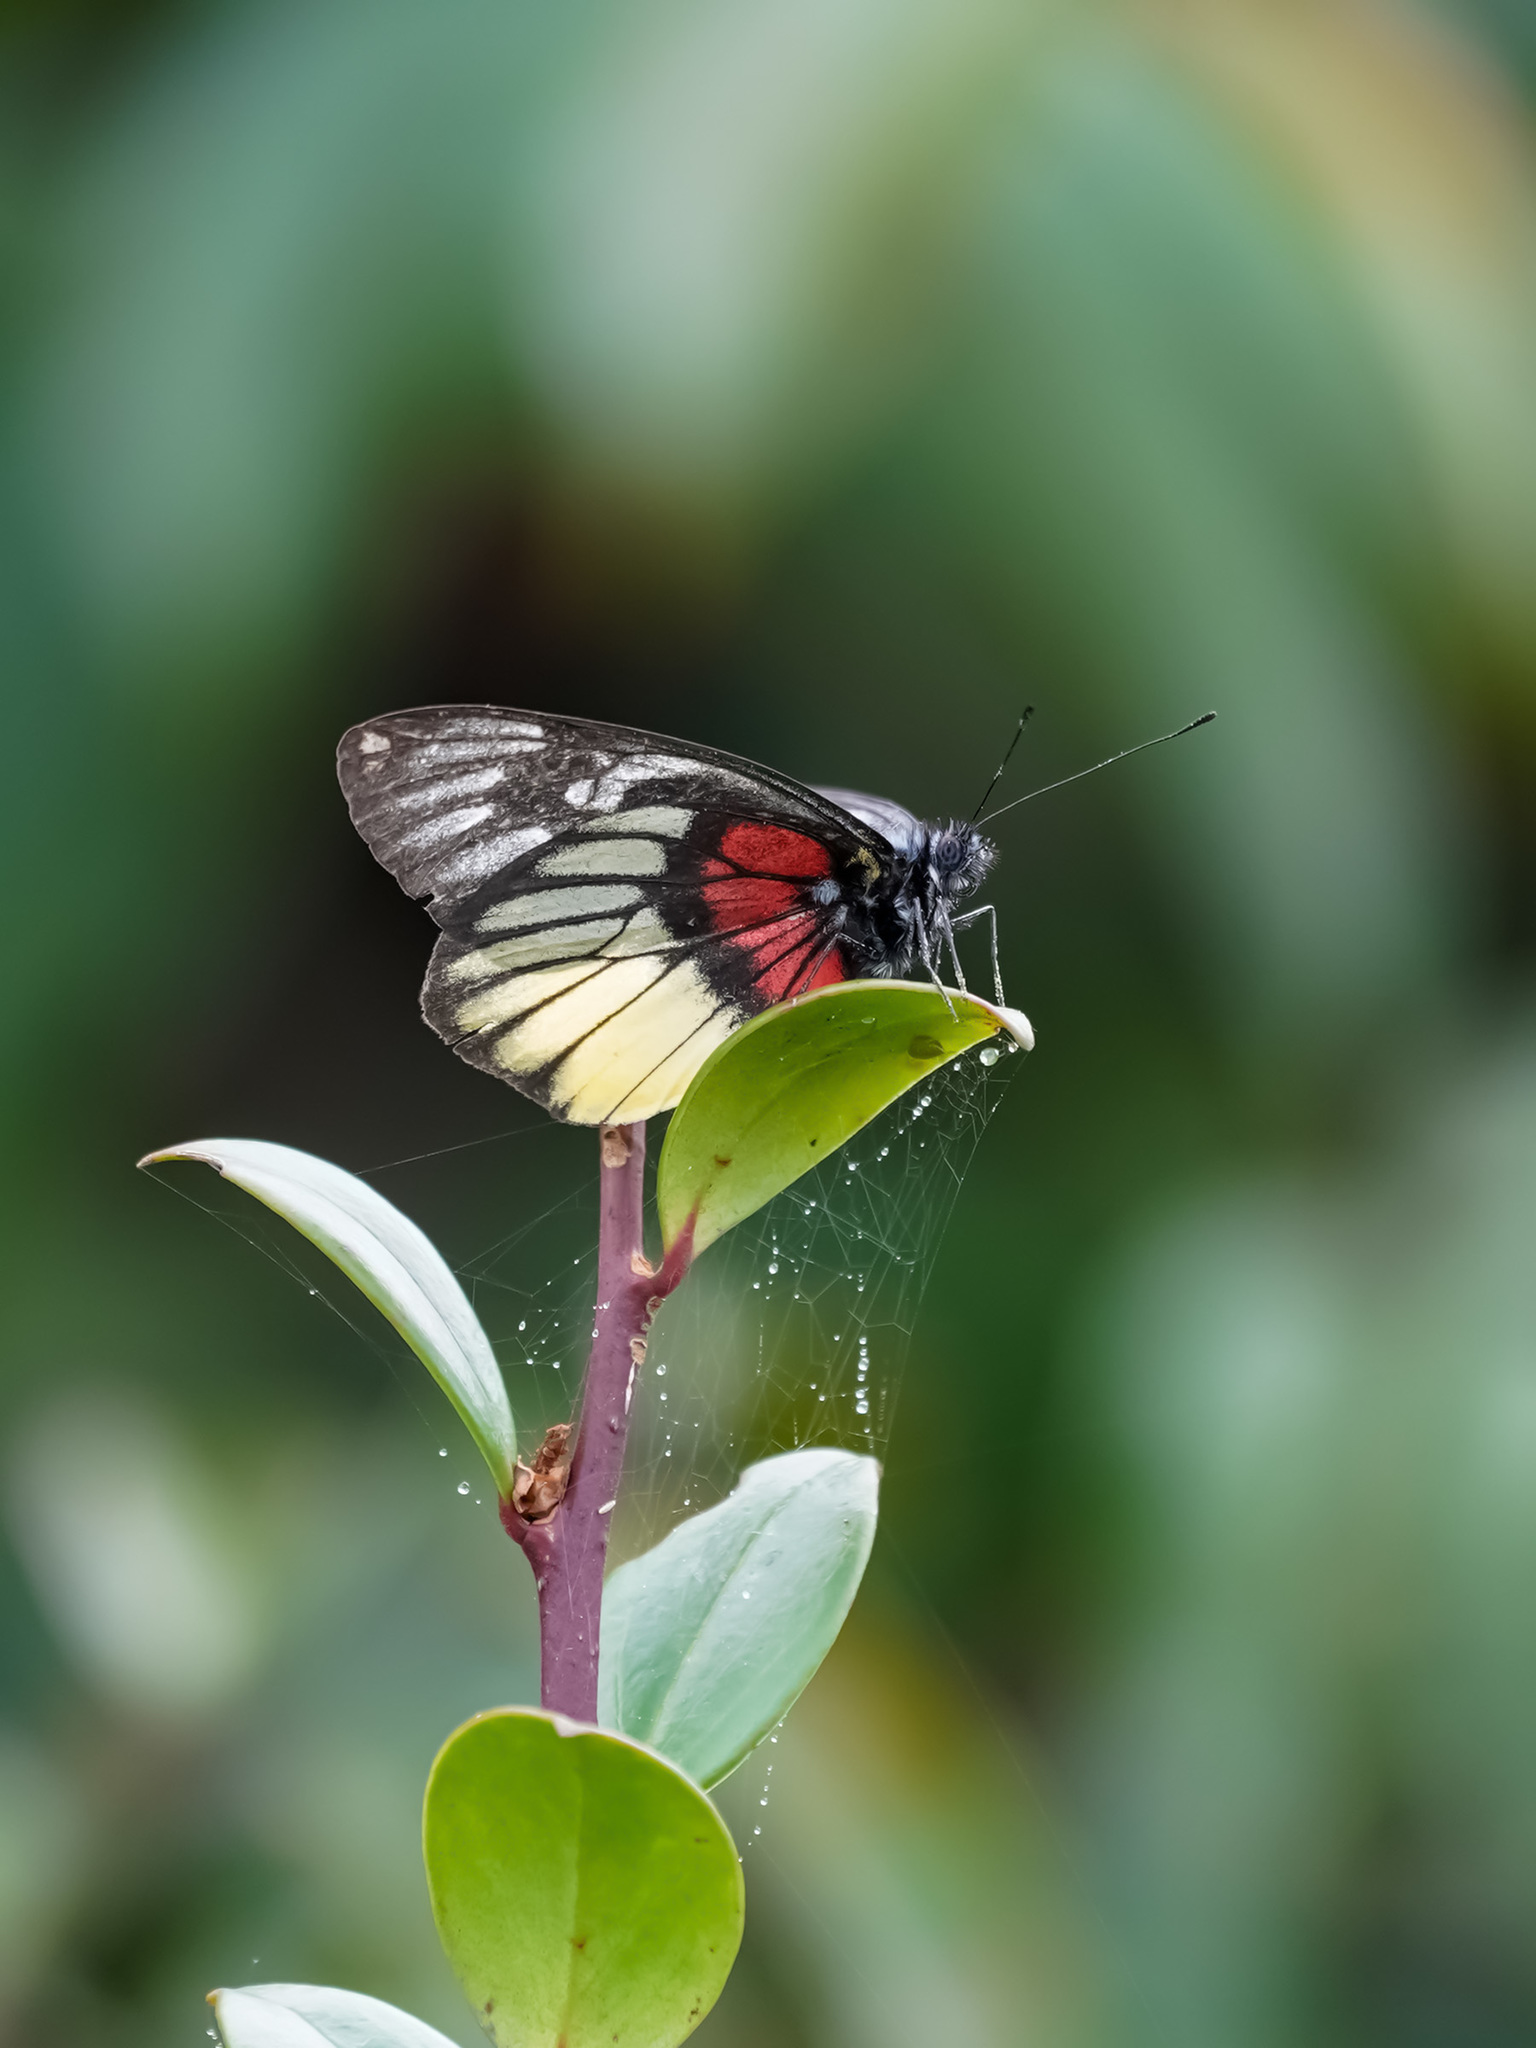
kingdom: Animalia
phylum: Arthropoda
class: Insecta
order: Lepidoptera
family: Pieridae
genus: Delias
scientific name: Delias ninus
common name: Malayan jezebel
